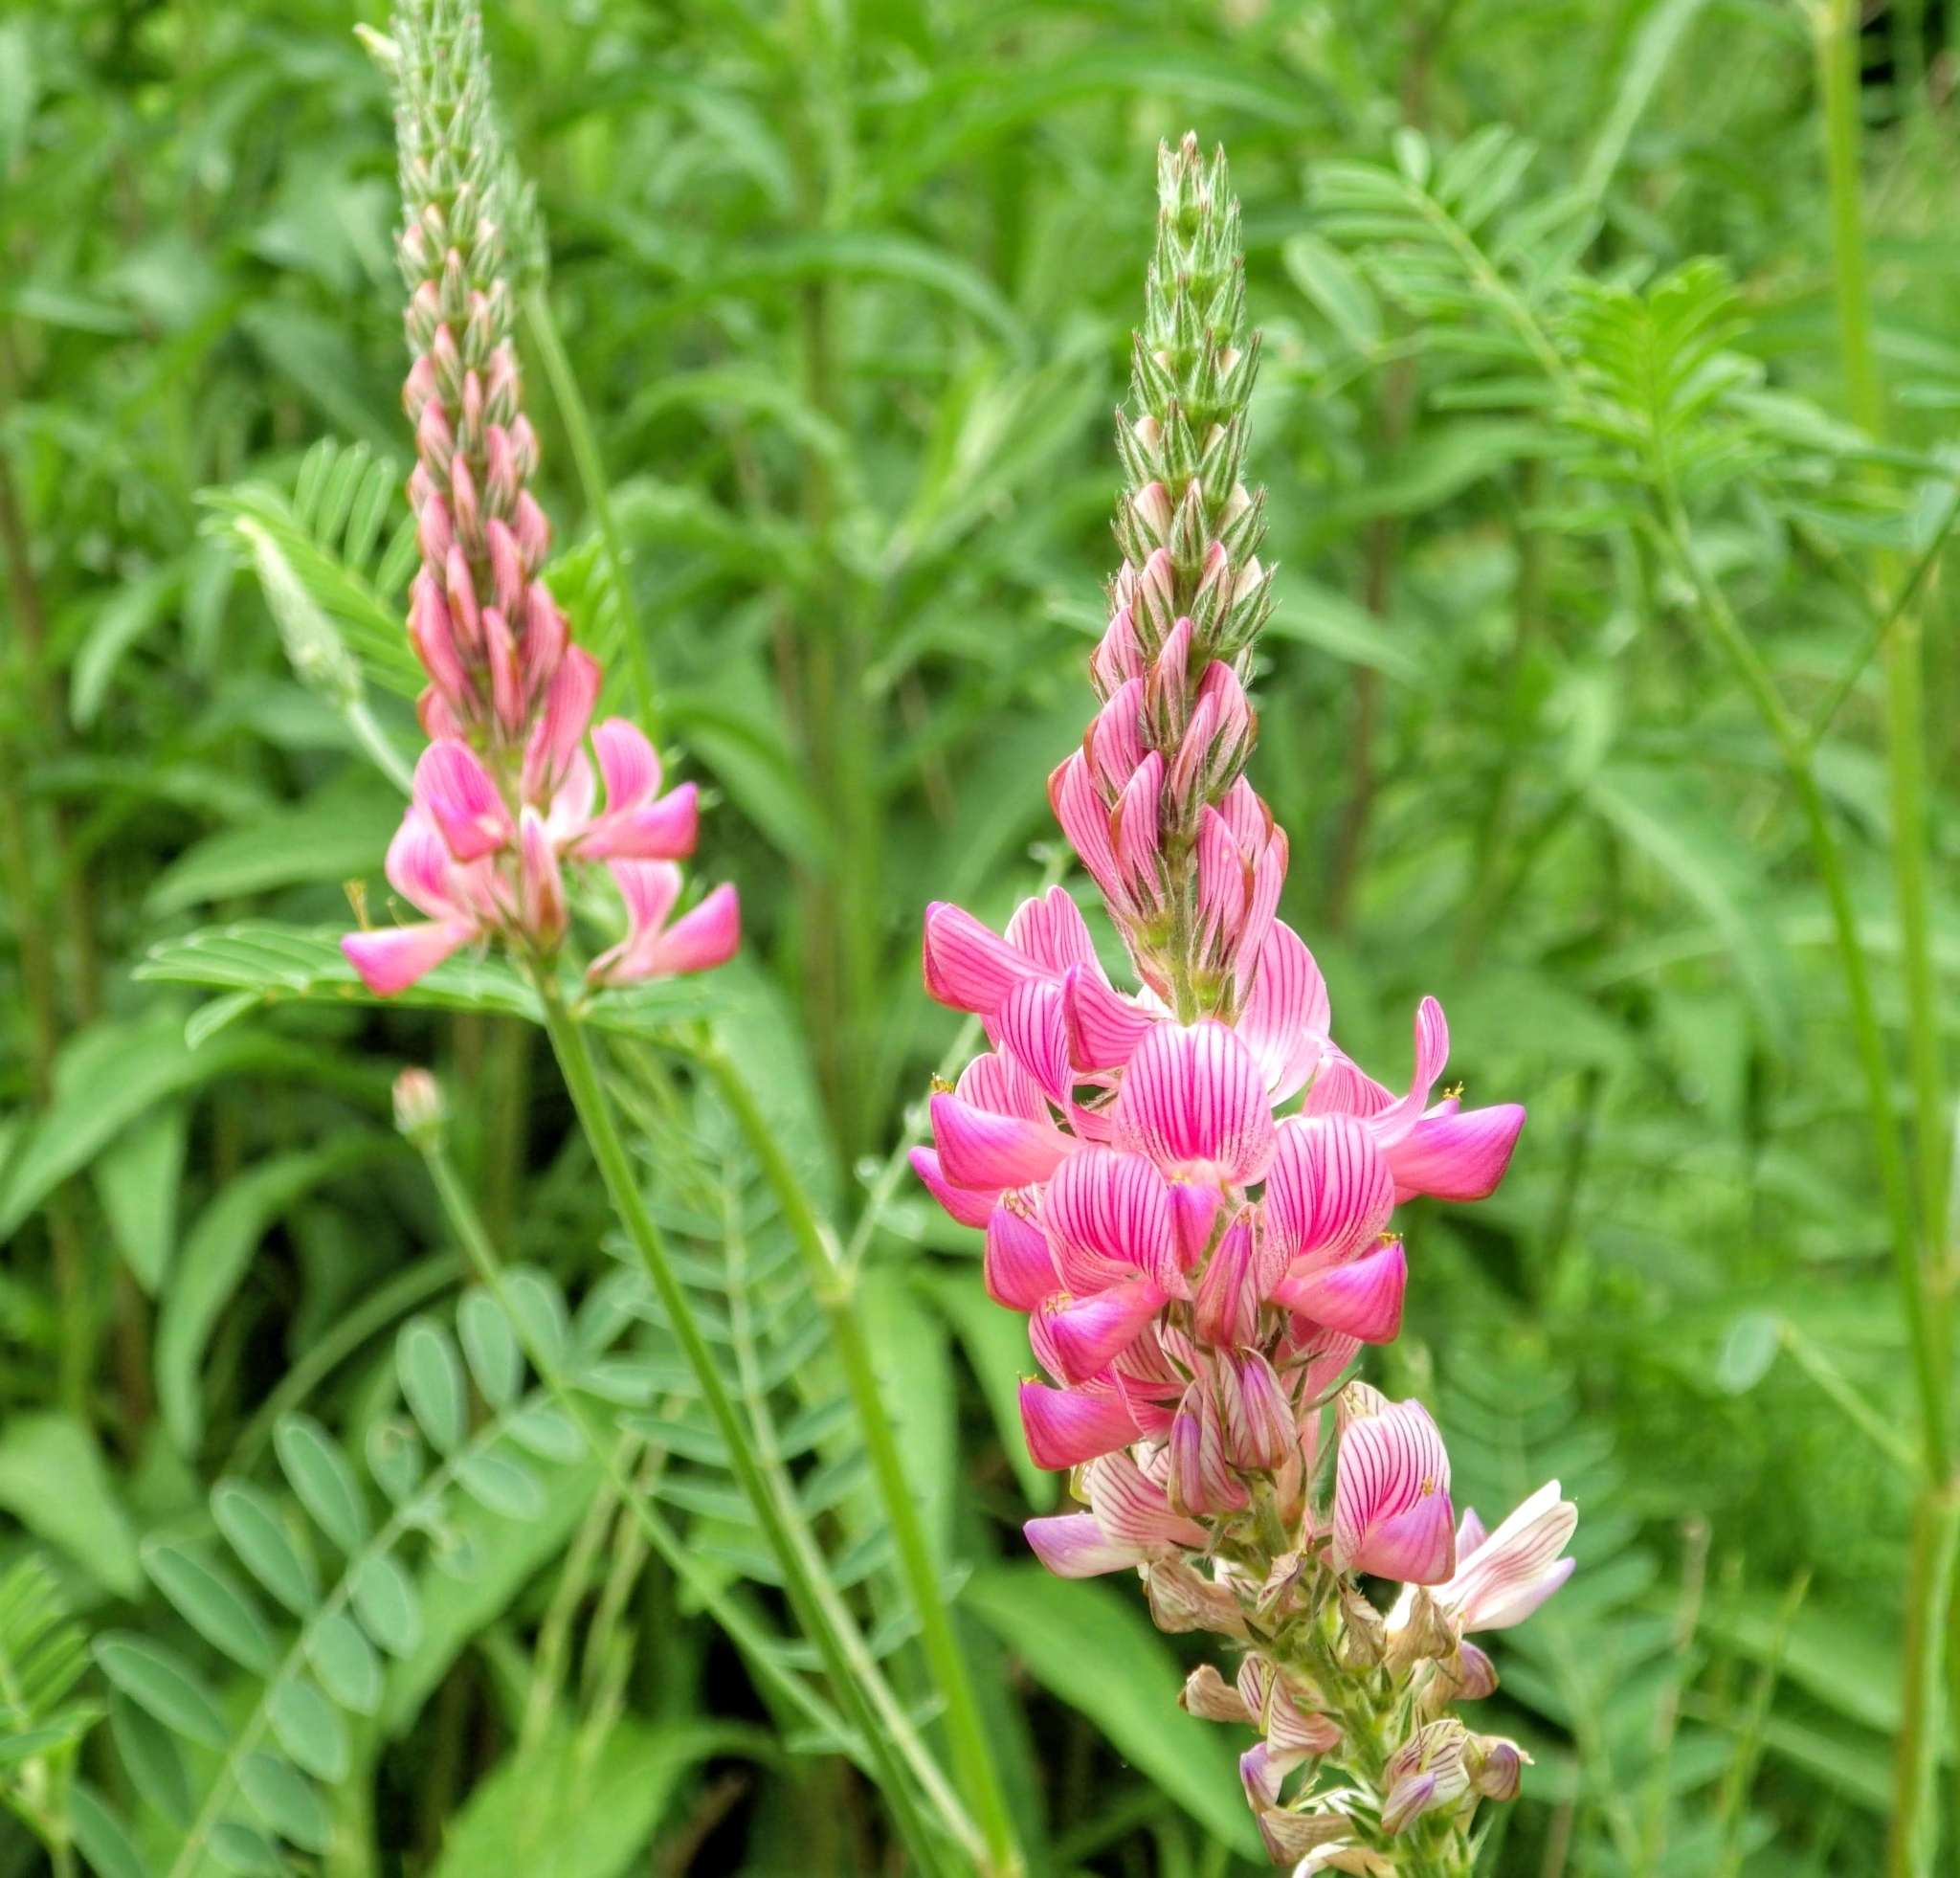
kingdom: Plantae
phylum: Tracheophyta
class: Magnoliopsida
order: Fabales
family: Fabaceae
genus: Onobrychis
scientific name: Onobrychis viciifolia
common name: Sainfoin
